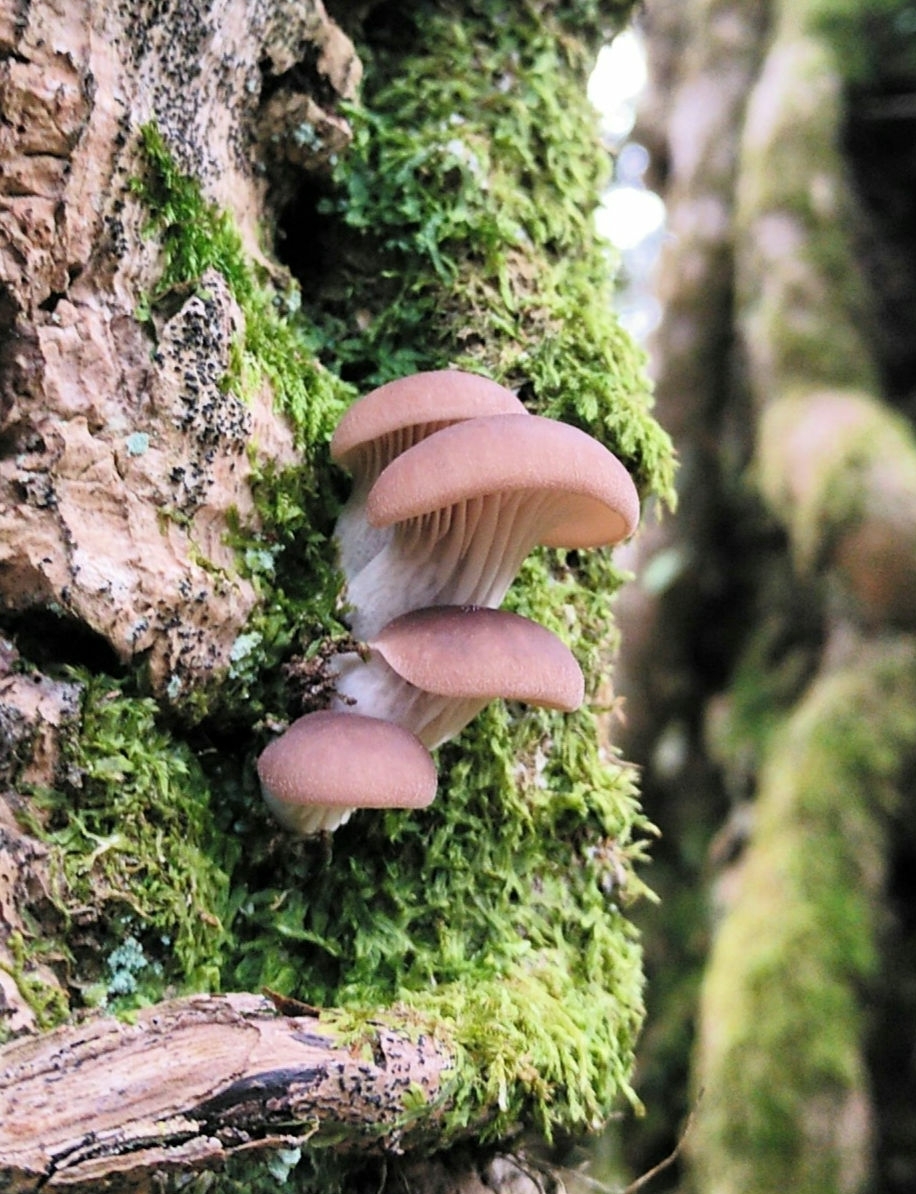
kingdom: Fungi
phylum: Basidiomycota
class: Agaricomycetes
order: Agaricales
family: Pleurotaceae
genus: Pleurotus
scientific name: Pleurotus ostreatus
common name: Oyster mushroom
